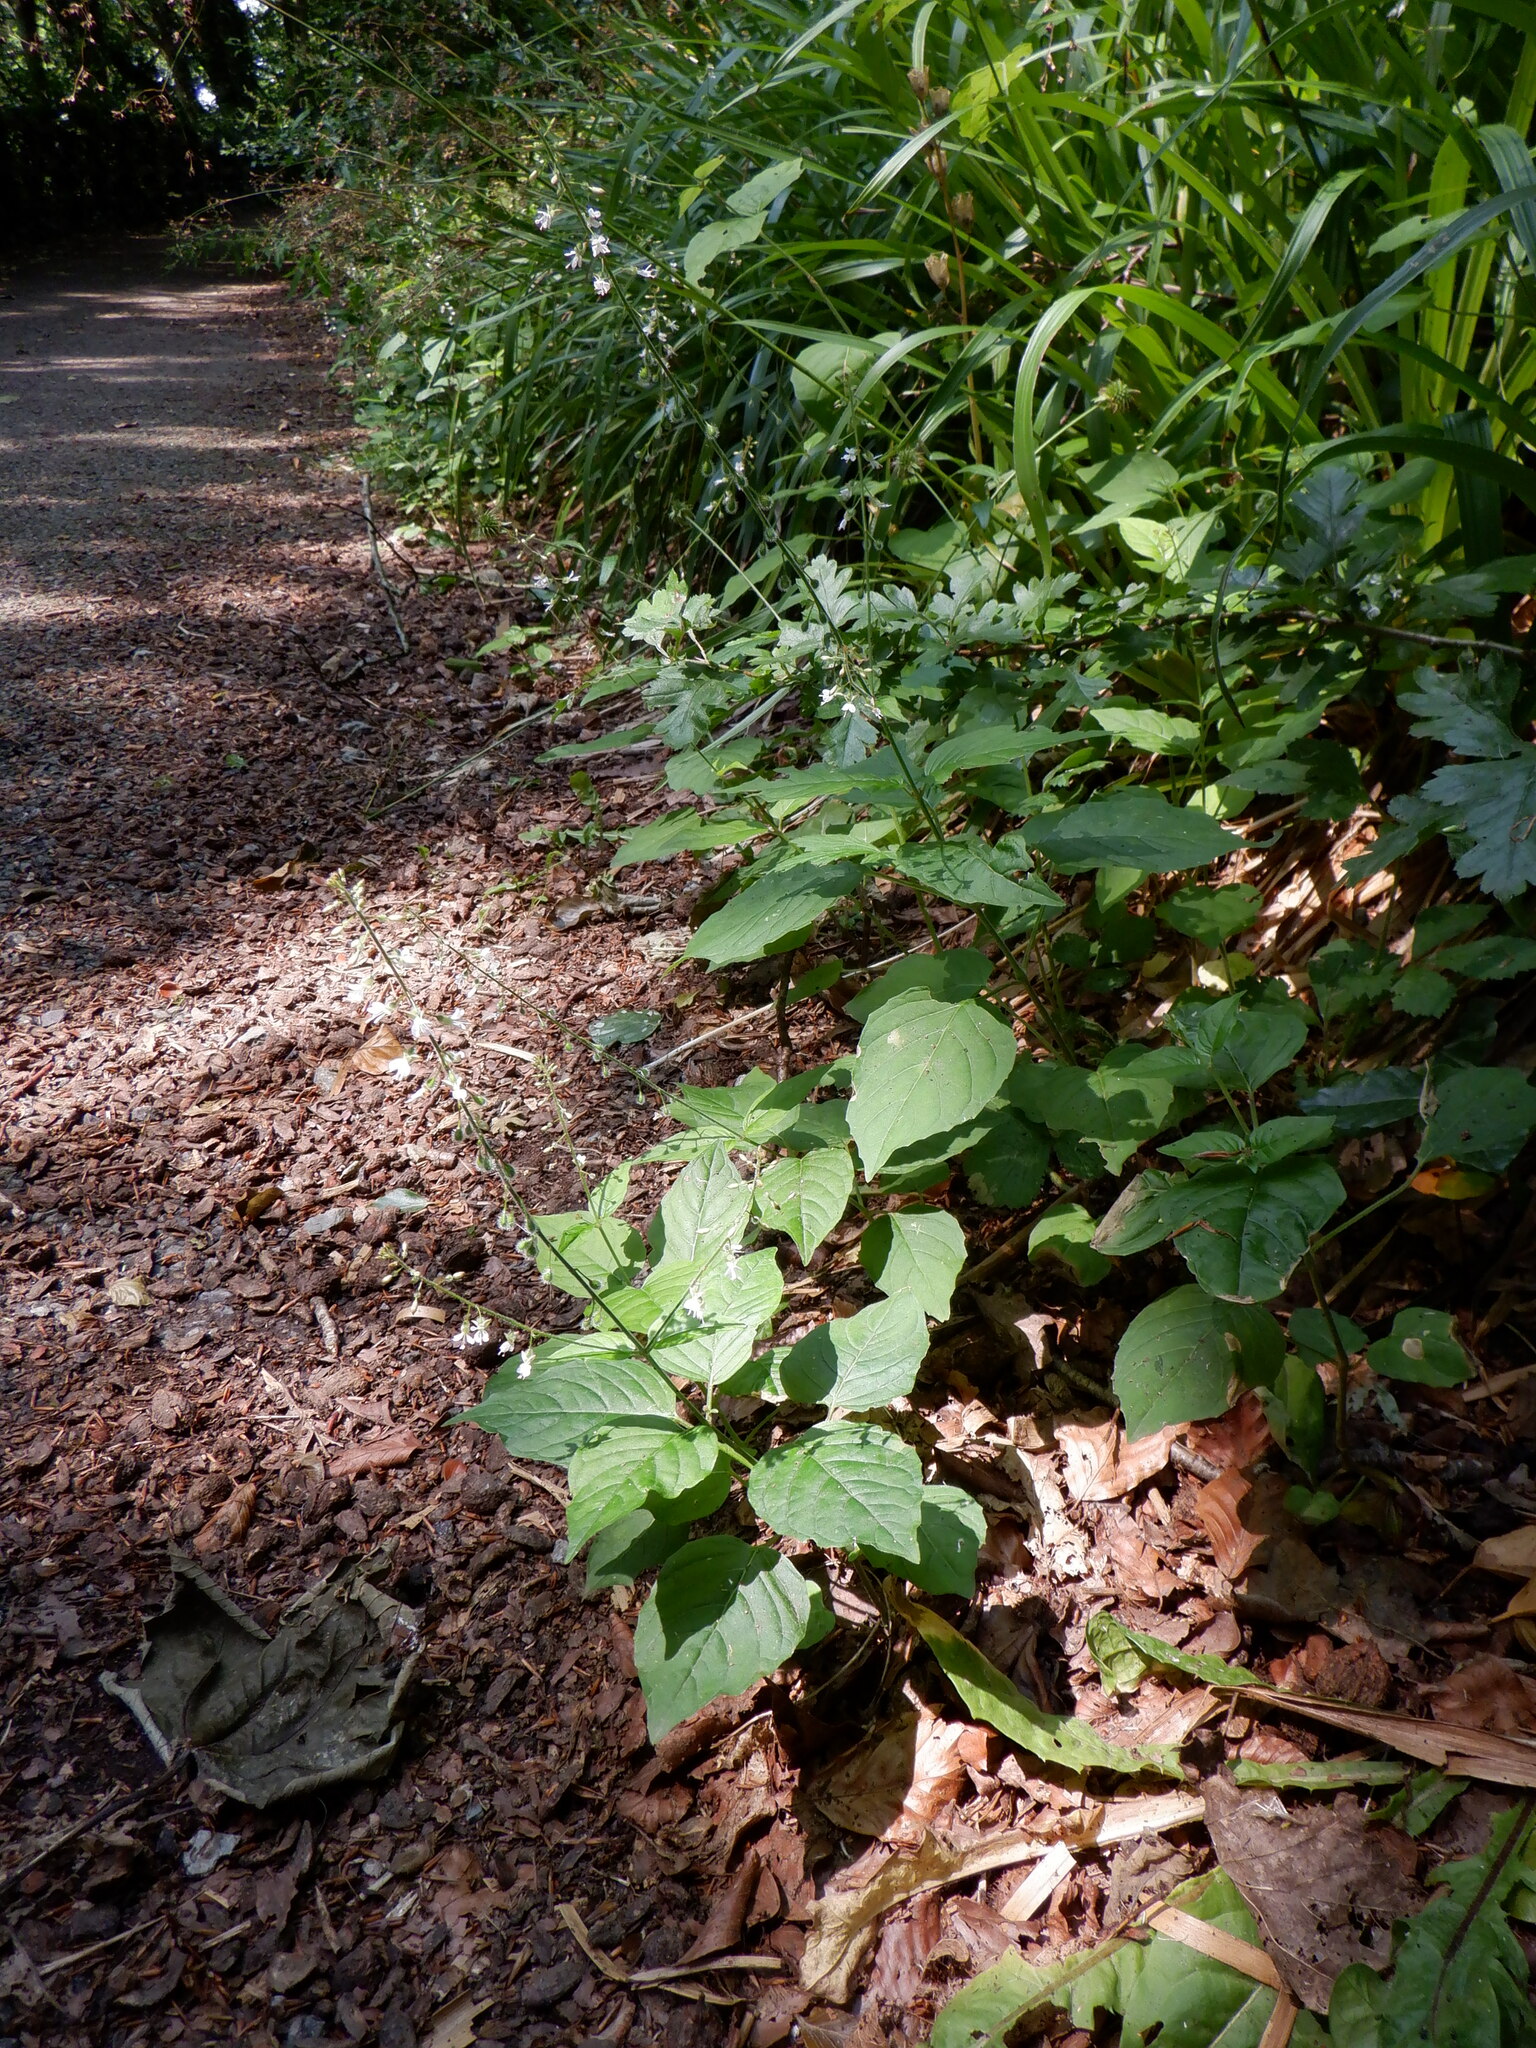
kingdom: Plantae
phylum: Tracheophyta
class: Magnoliopsida
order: Myrtales
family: Onagraceae
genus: Circaea
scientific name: Circaea lutetiana
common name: Enchanter's-nightshade
